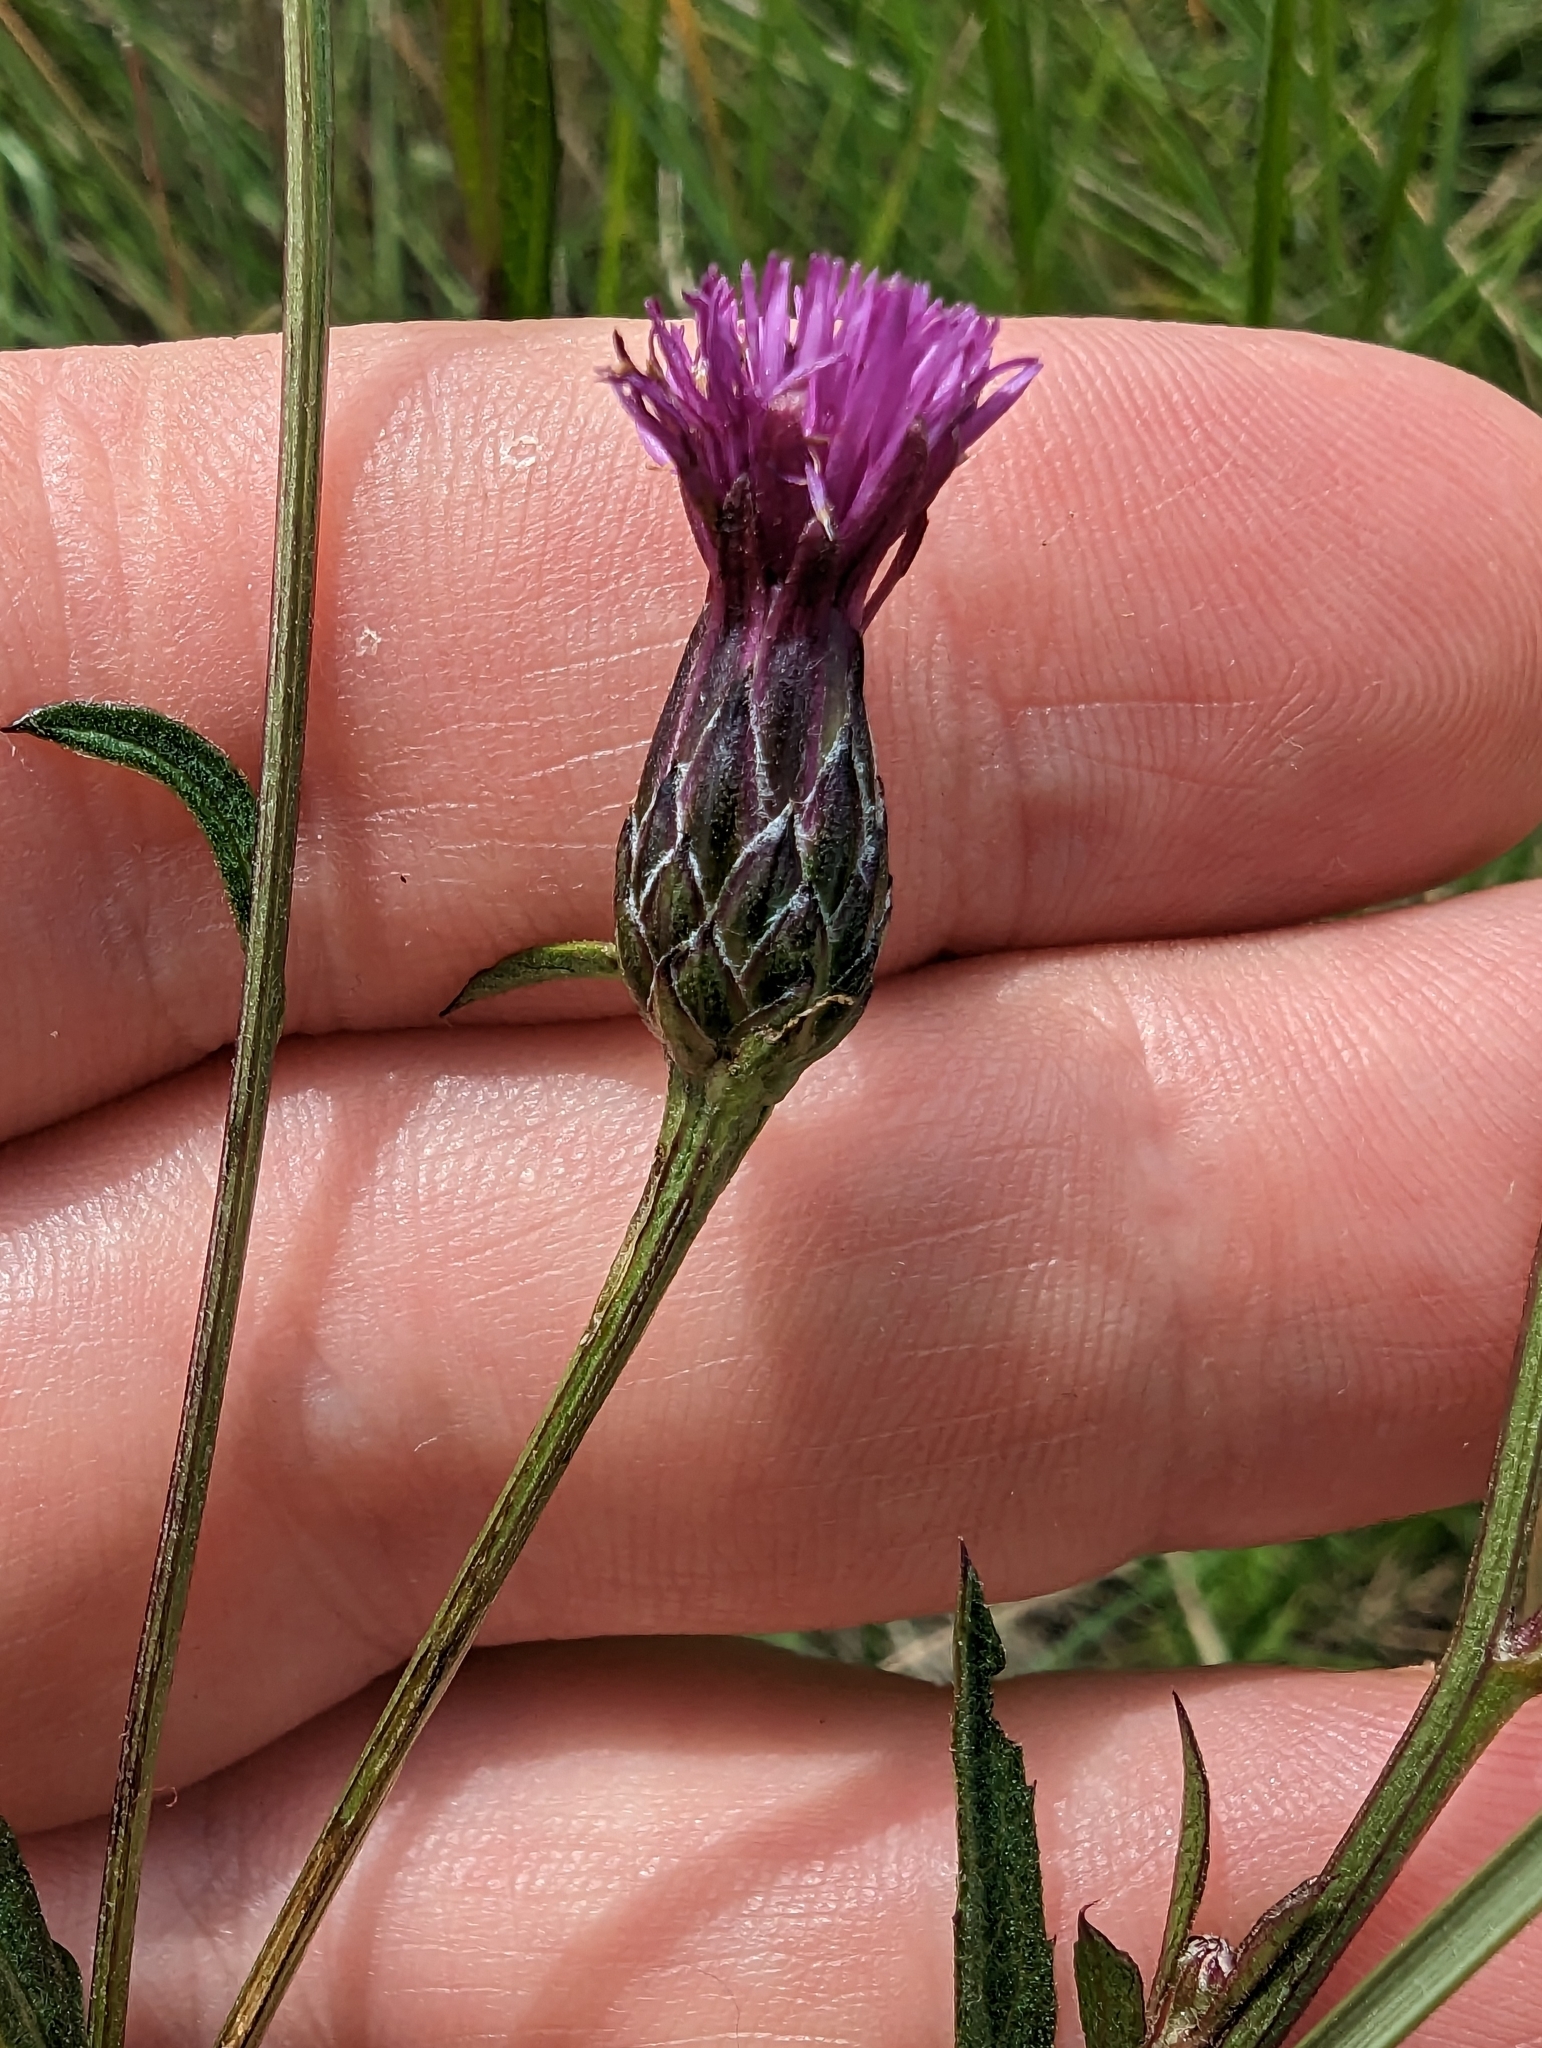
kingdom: Plantae
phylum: Tracheophyta
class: Magnoliopsida
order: Asterales
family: Asteraceae
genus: Serratula
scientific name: Serratula tinctoria
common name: Saw-wort
